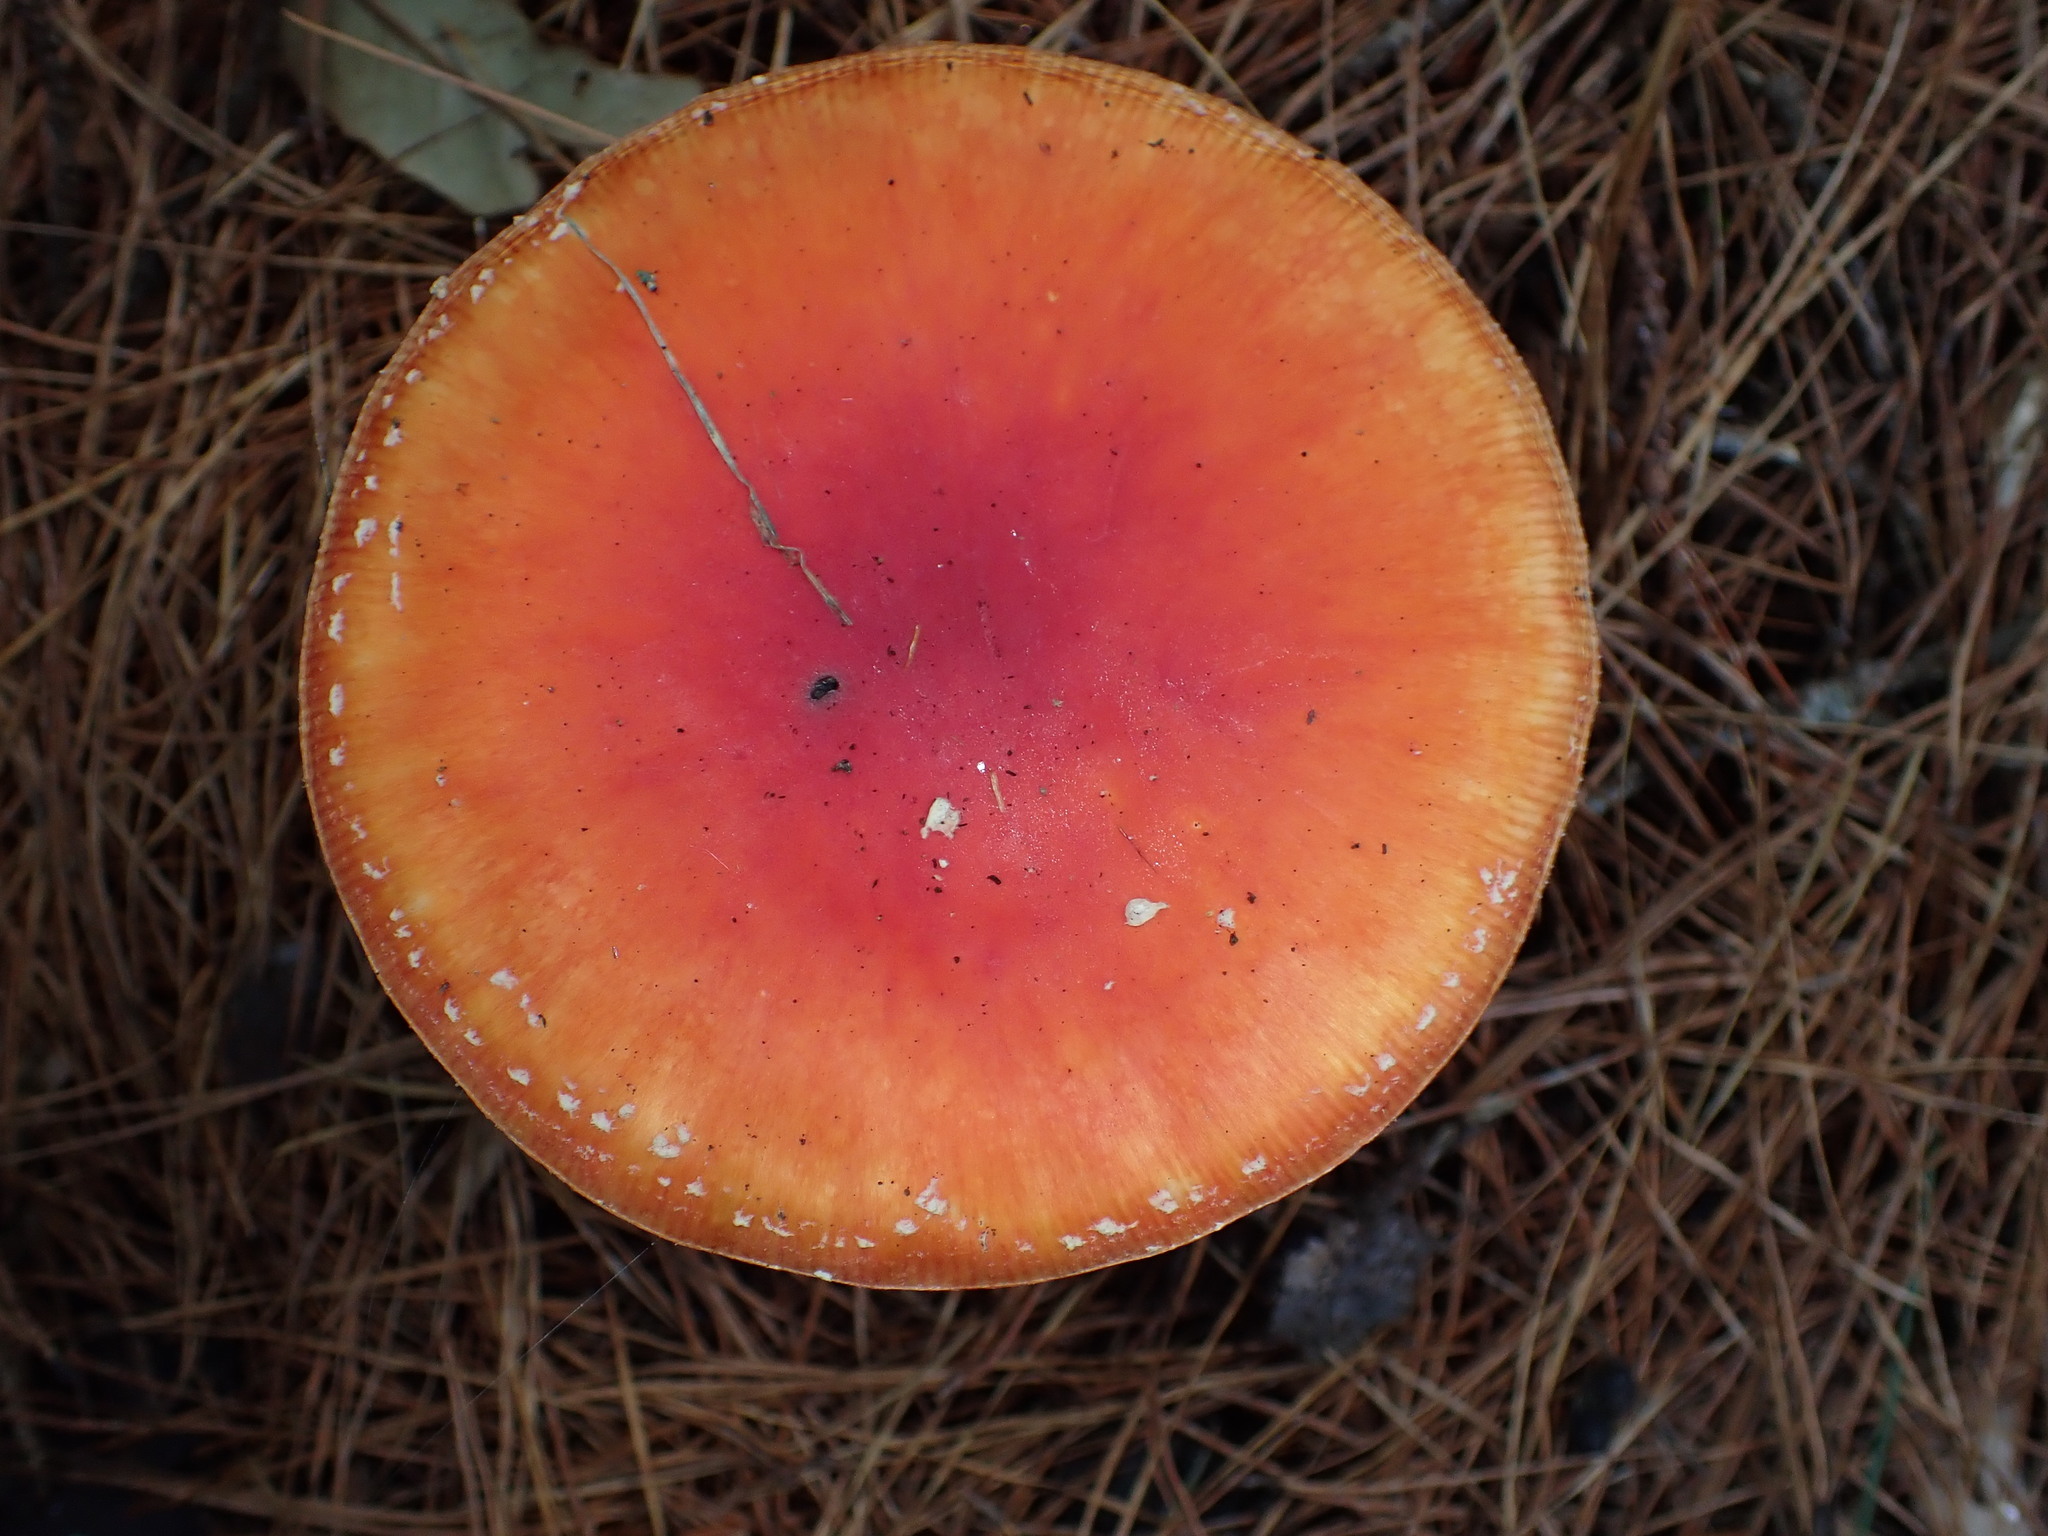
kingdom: Fungi
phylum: Basidiomycota
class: Agaricomycetes
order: Agaricales
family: Amanitaceae
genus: Amanita
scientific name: Amanita muscaria
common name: Fly agaric
